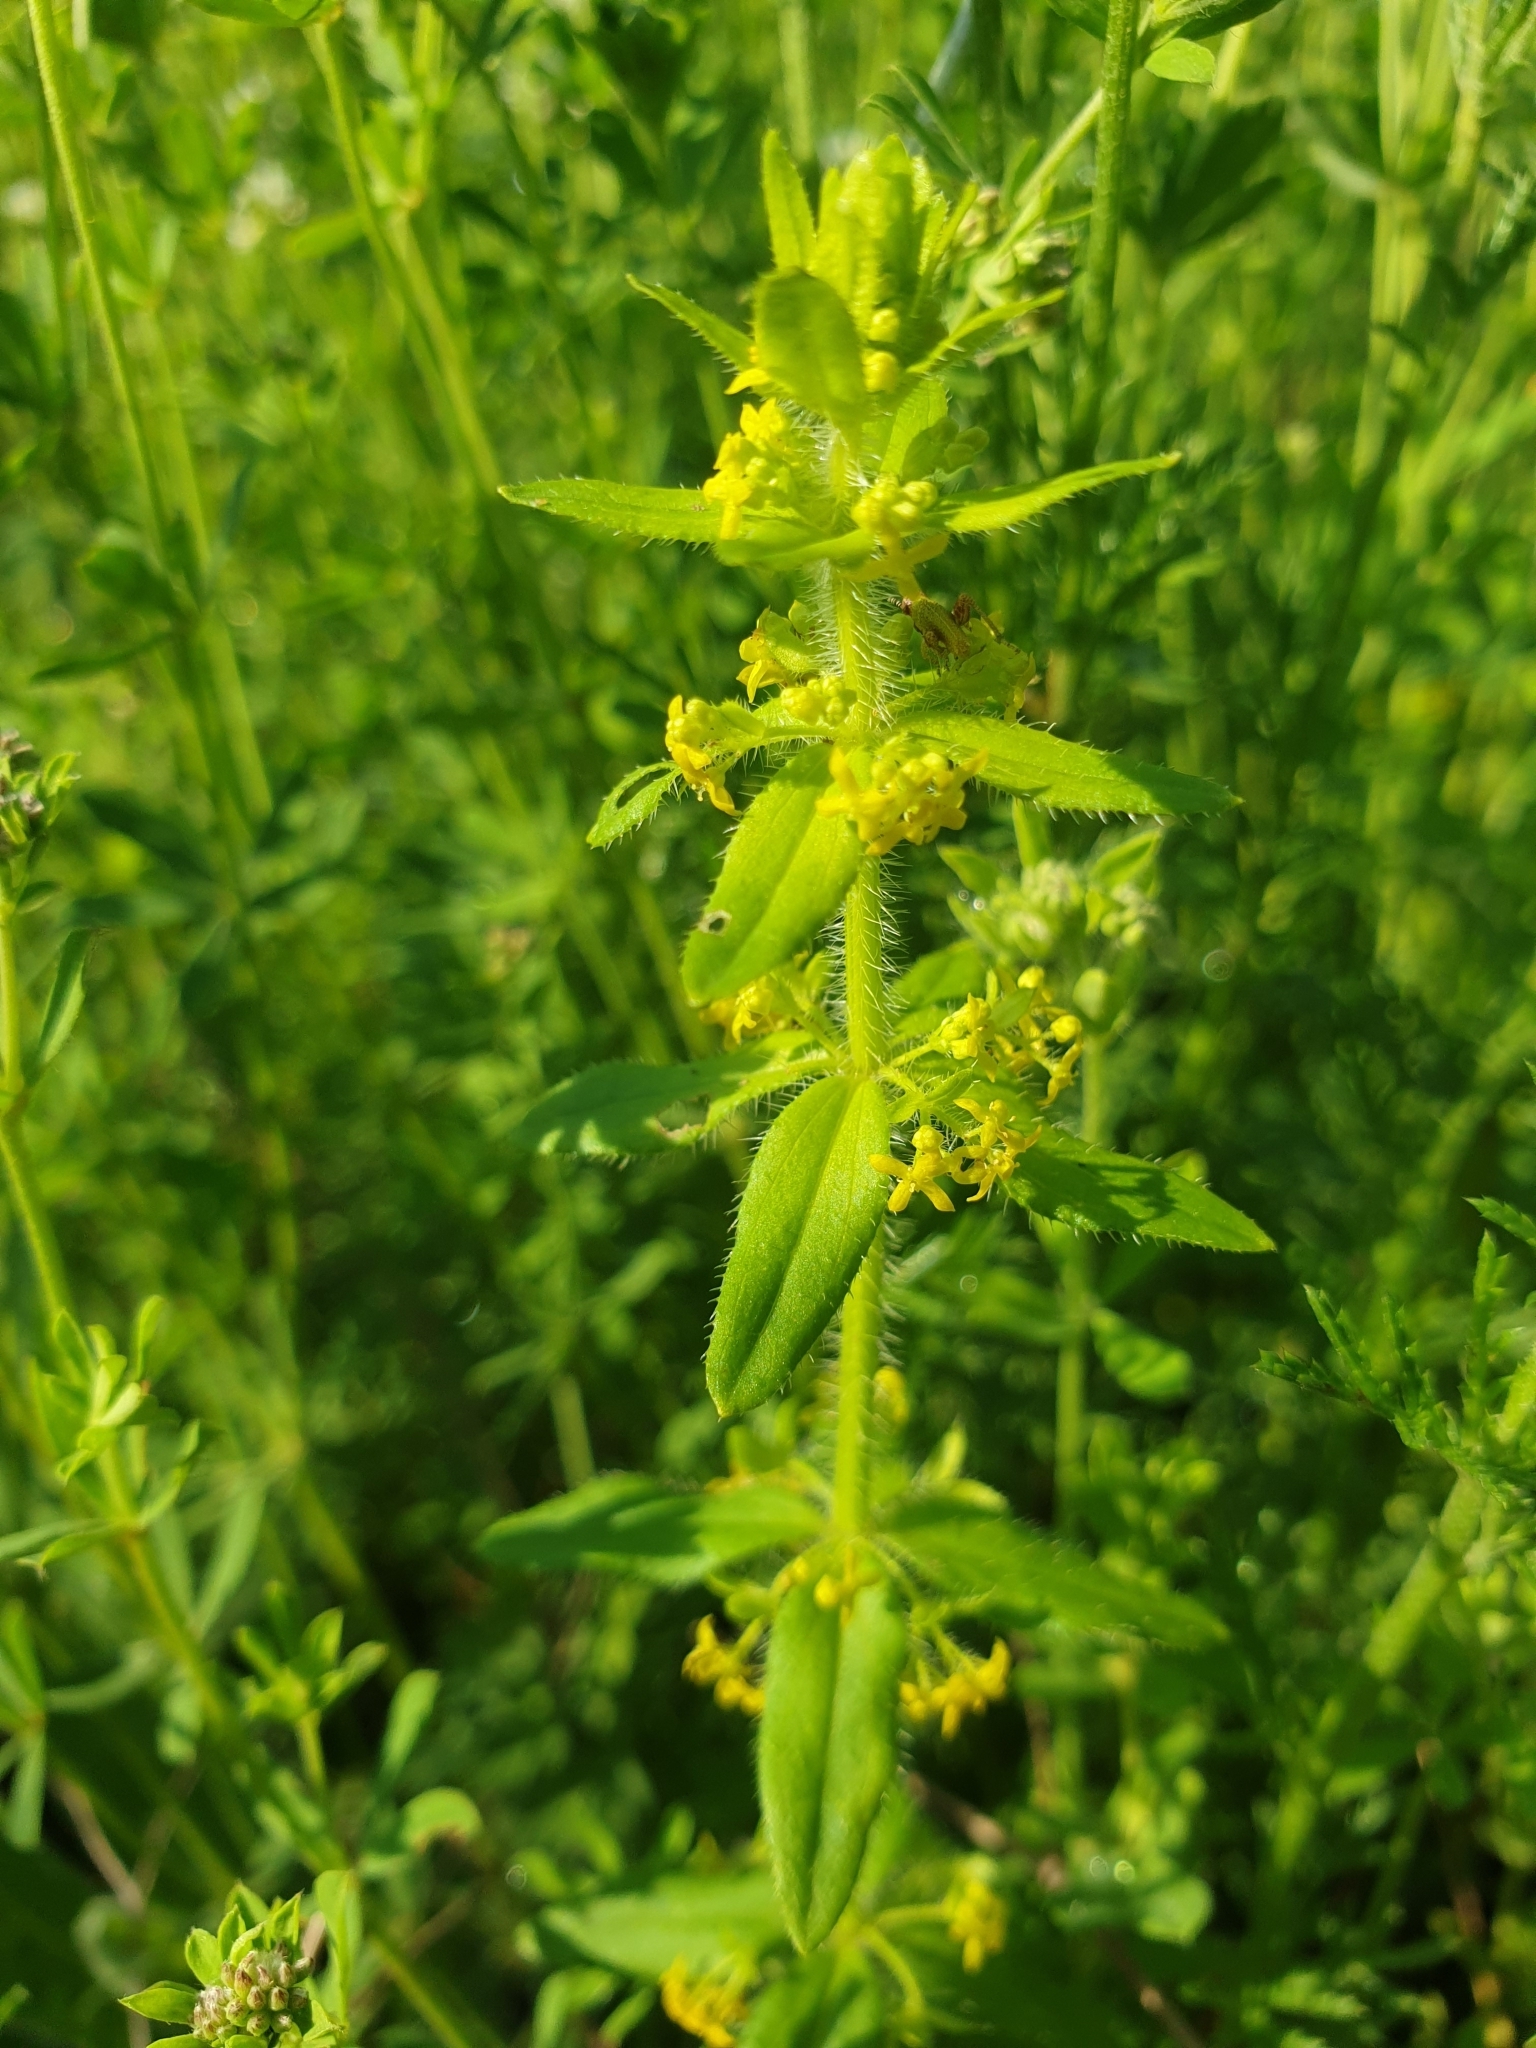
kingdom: Plantae
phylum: Tracheophyta
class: Magnoliopsida
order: Gentianales
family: Rubiaceae
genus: Cruciata
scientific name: Cruciata laevipes
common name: Crosswort
